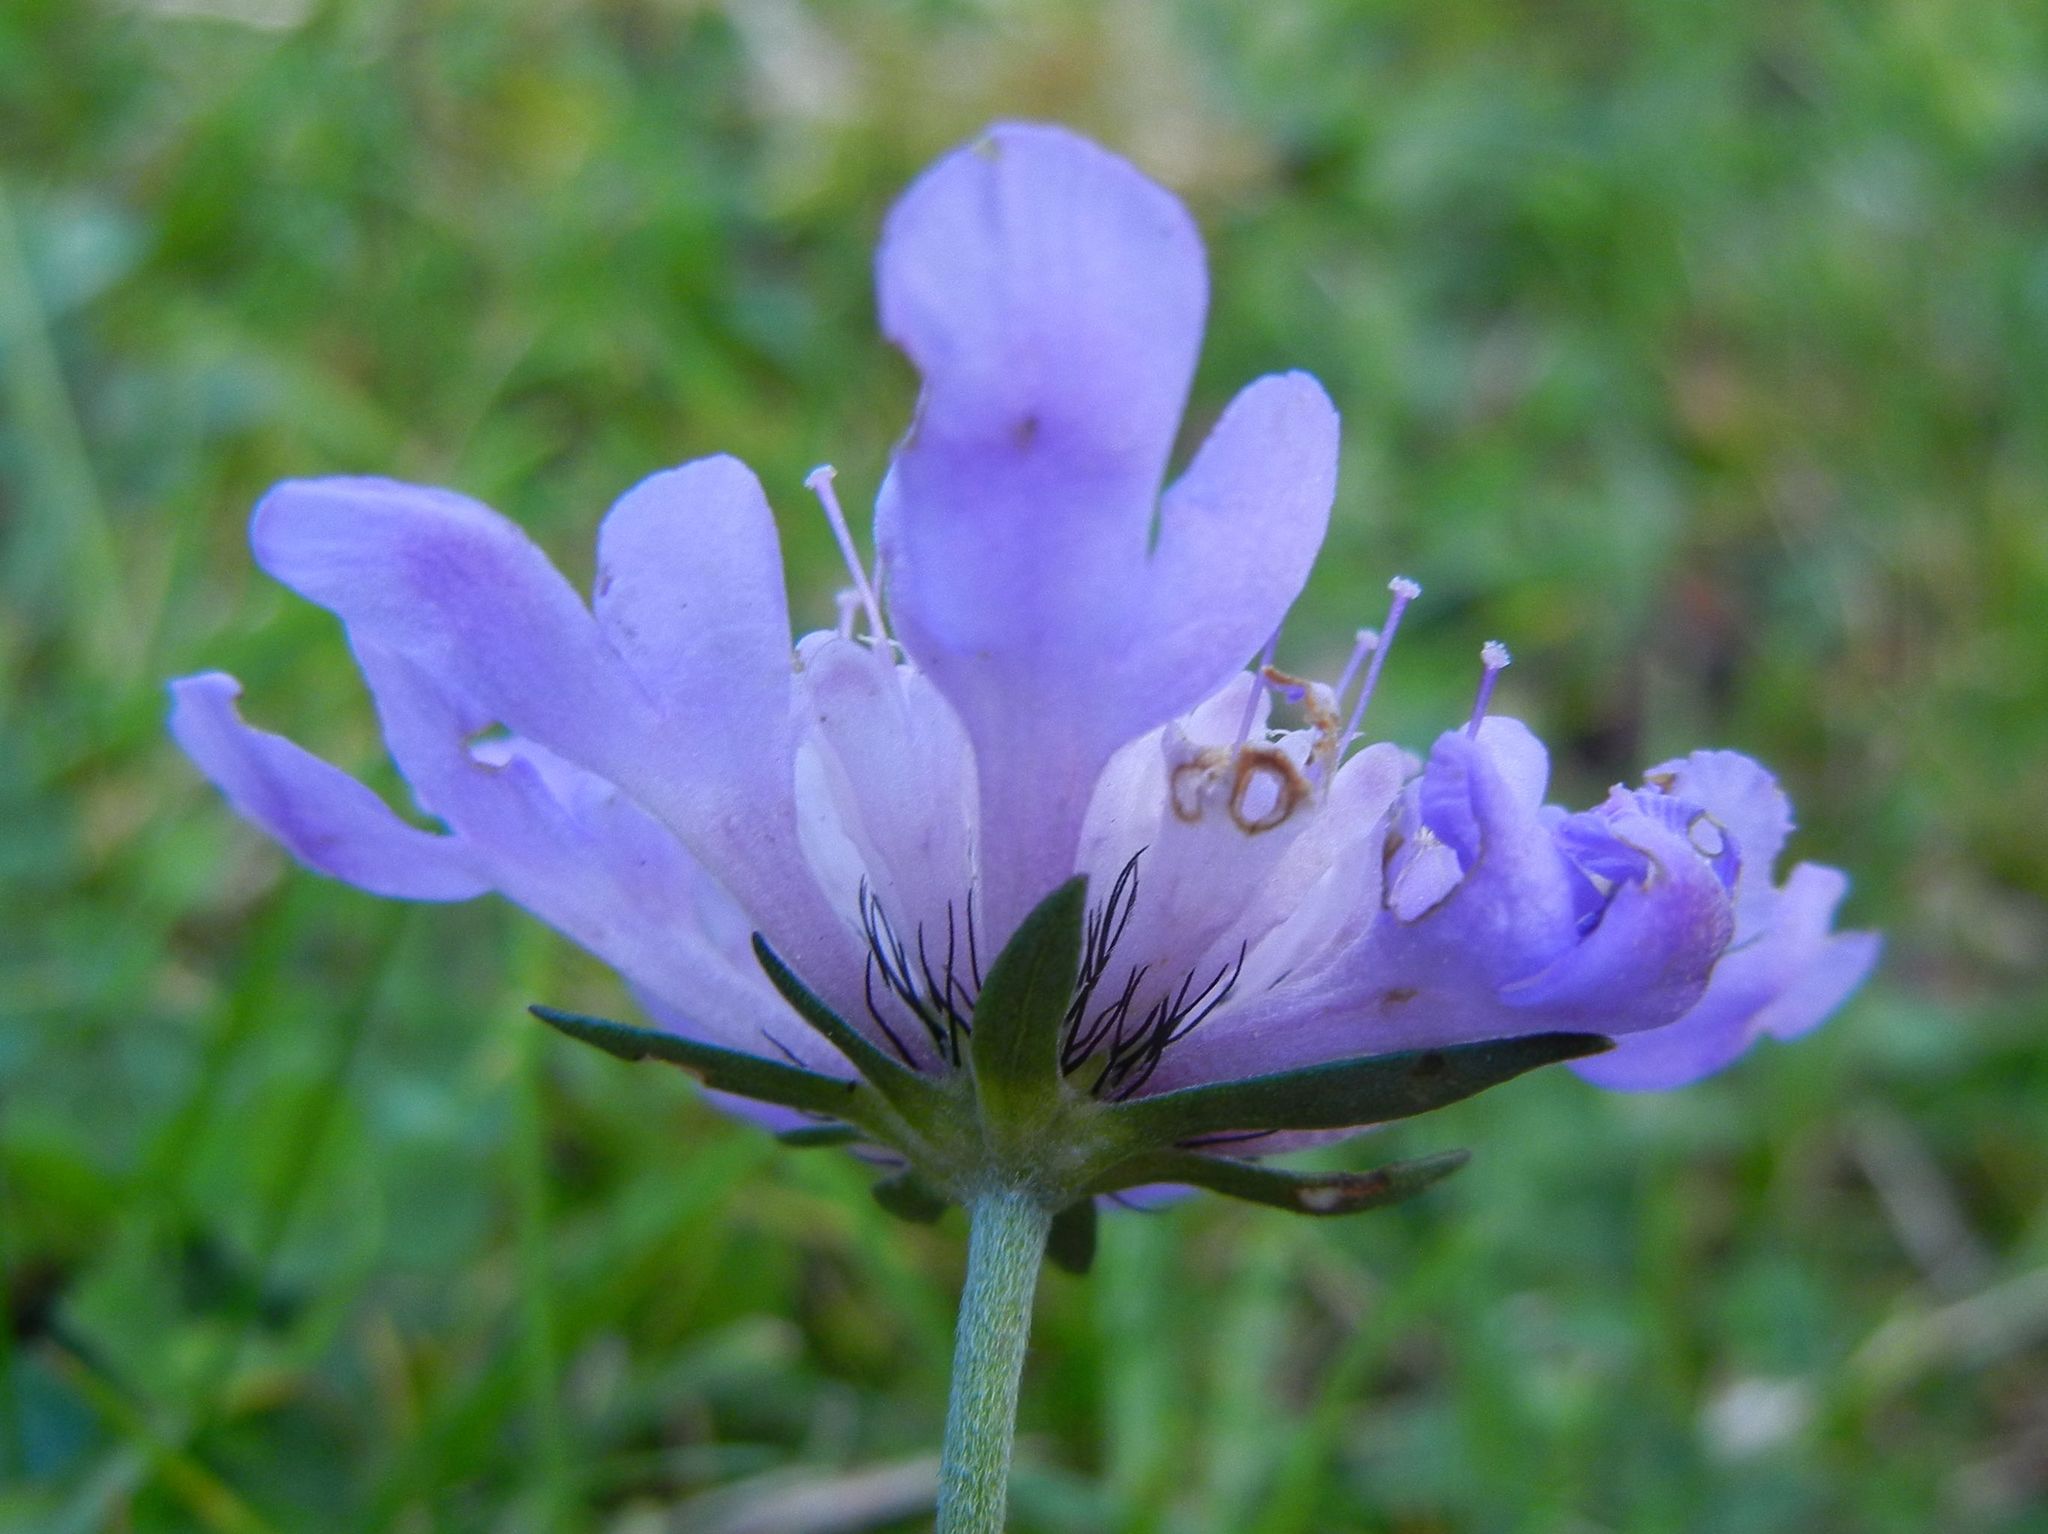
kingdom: Plantae
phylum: Tracheophyta
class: Magnoliopsida
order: Dipsacales
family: Caprifoliaceae
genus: Scabiosa
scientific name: Scabiosa columbaria
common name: Small scabious
